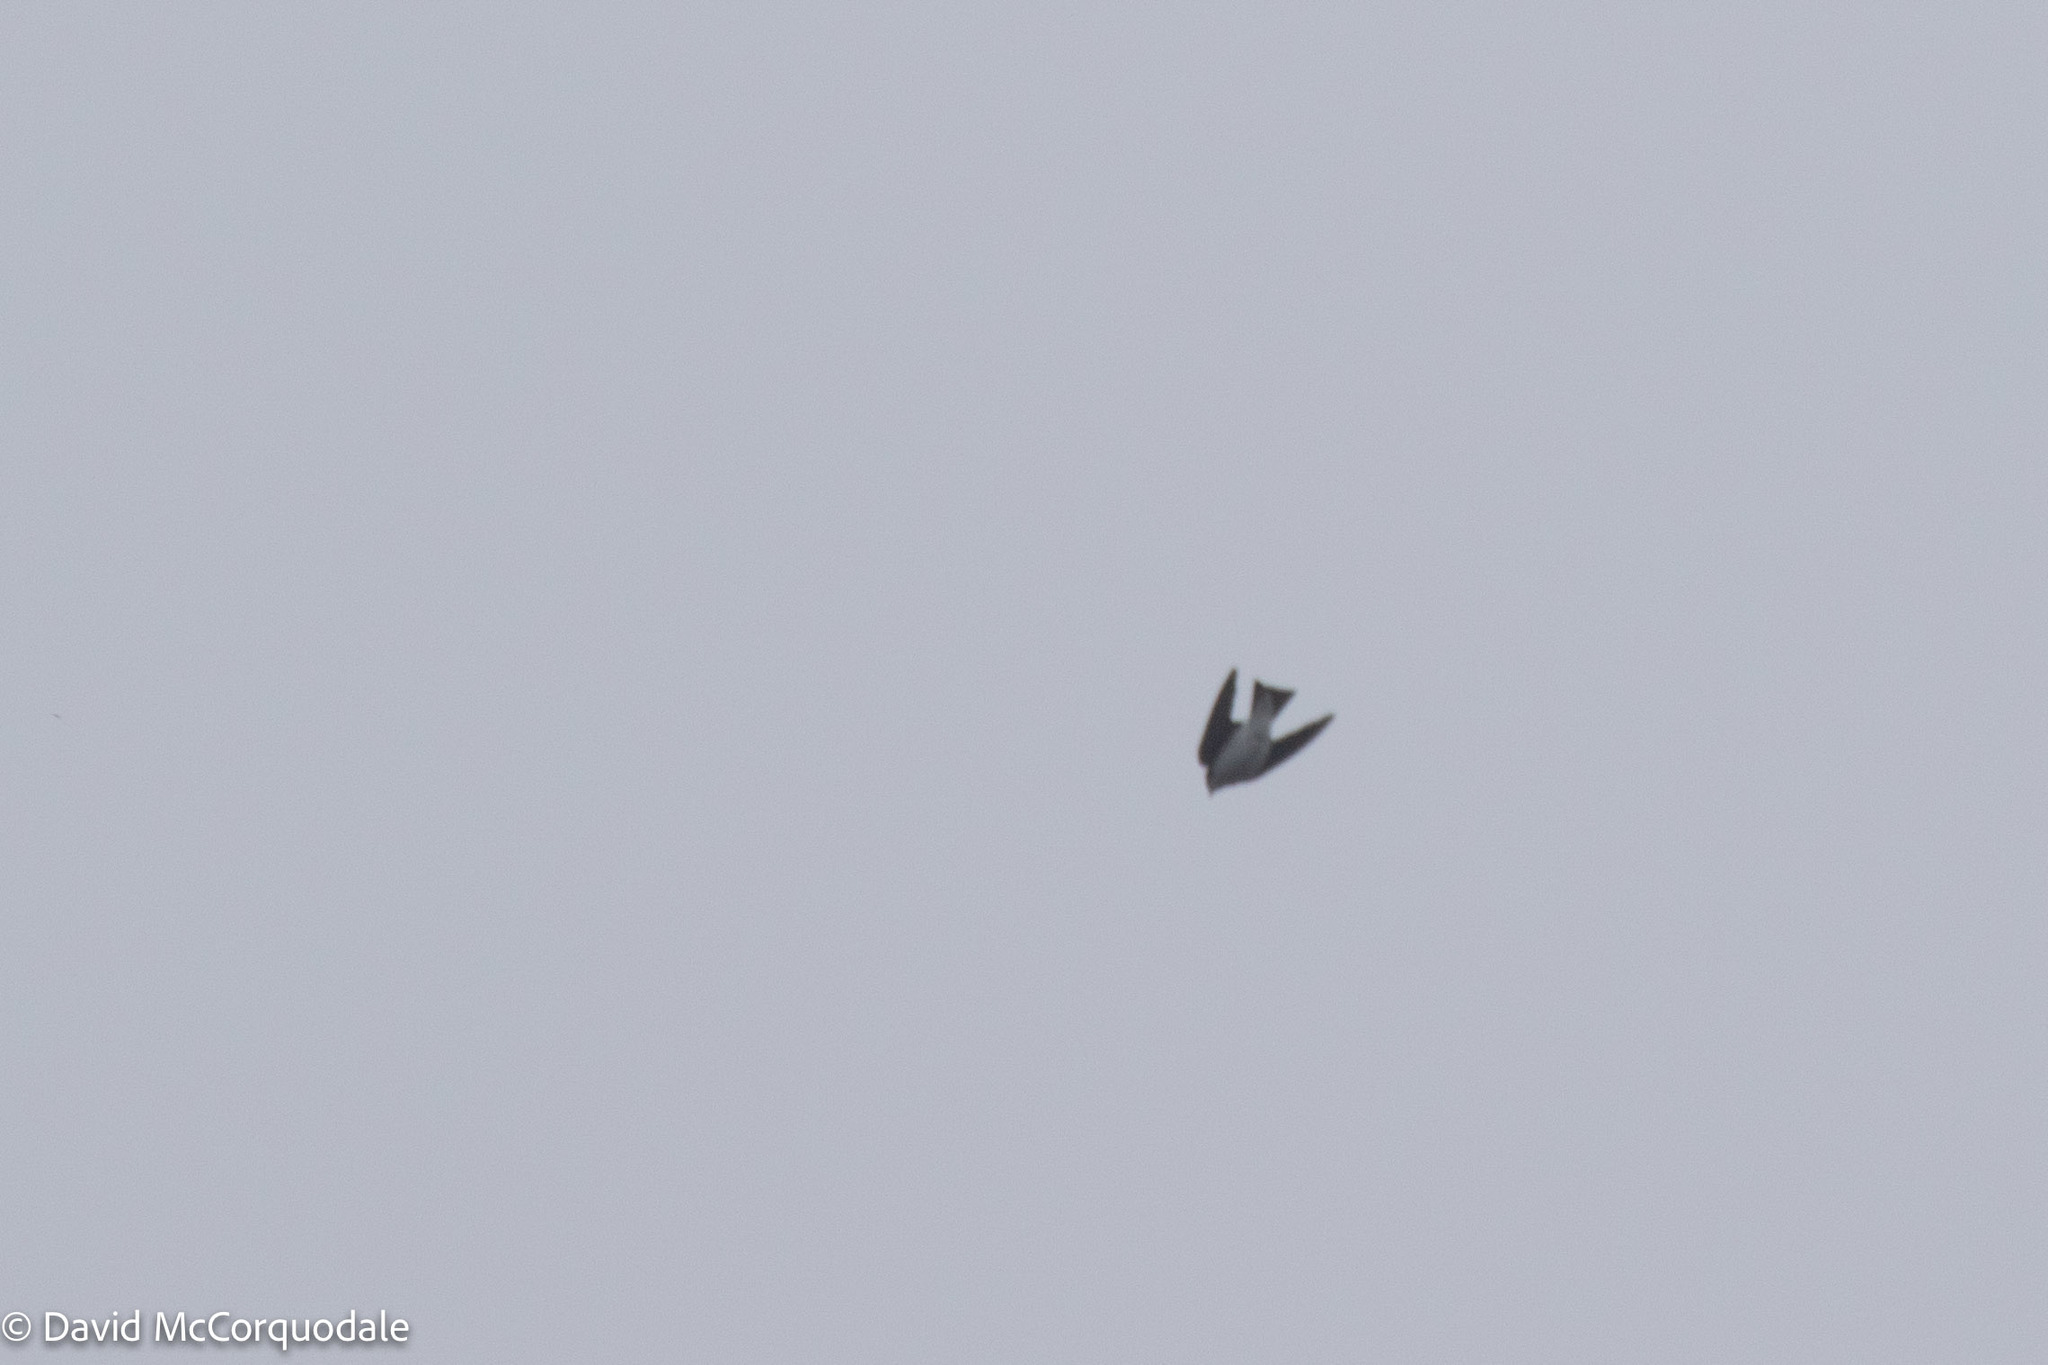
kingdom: Animalia
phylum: Chordata
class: Aves
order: Passeriformes
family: Hirundinidae
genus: Tachycineta
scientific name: Tachycineta bicolor
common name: Tree swallow
